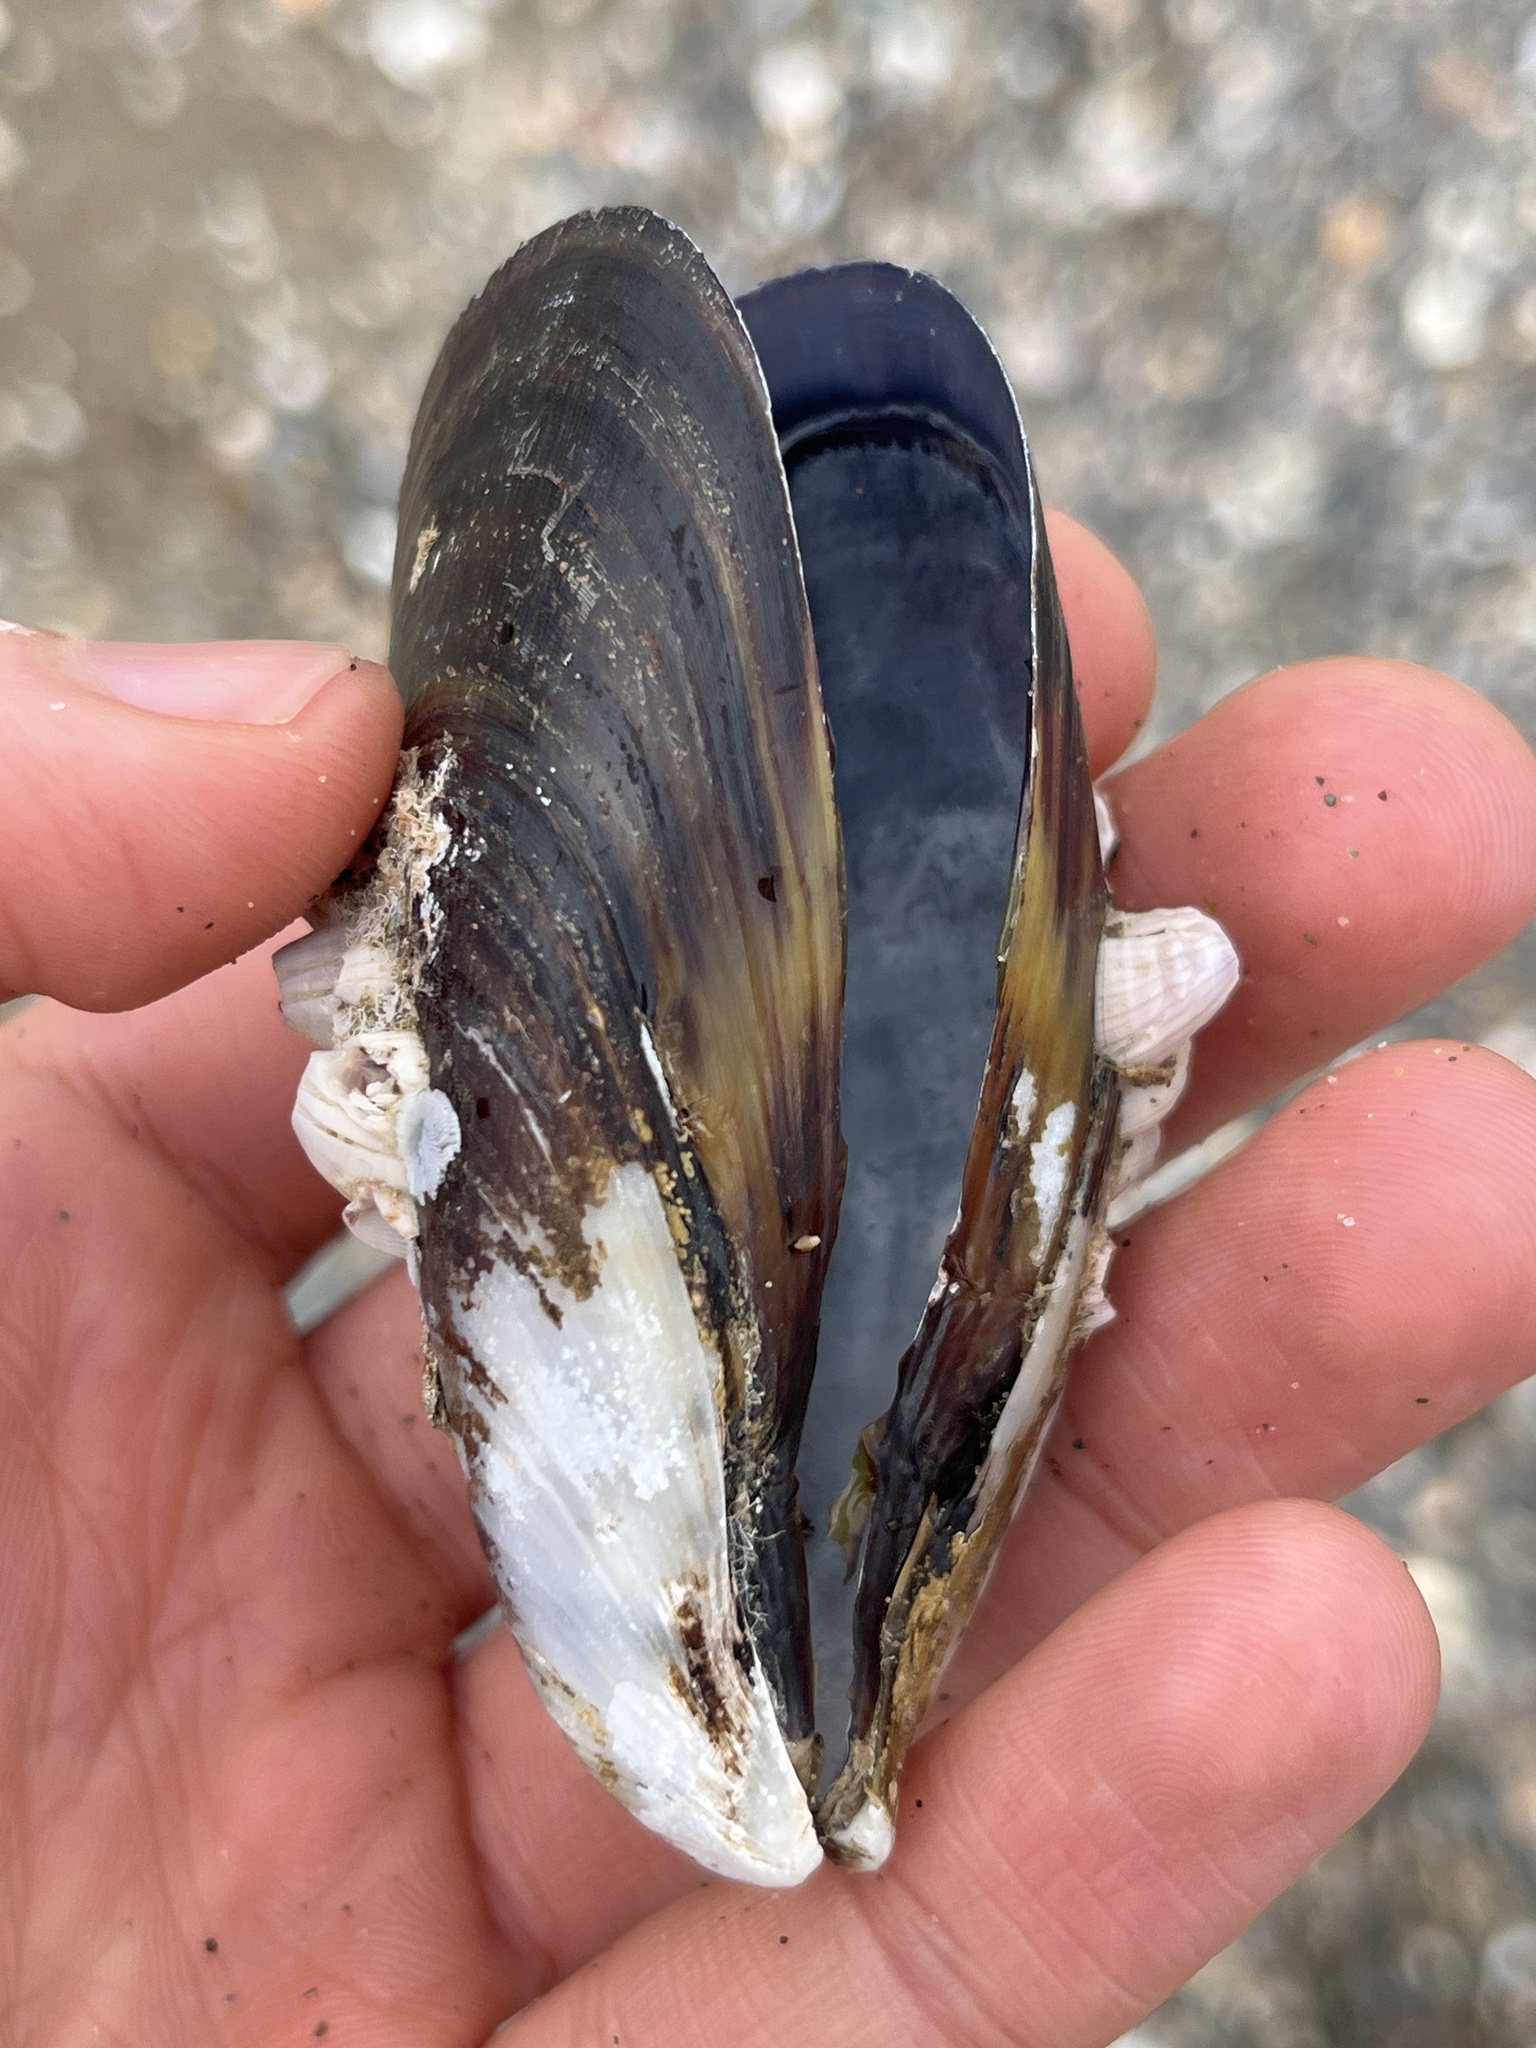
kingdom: Animalia
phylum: Mollusca
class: Bivalvia
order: Mytilida
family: Mytilidae
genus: Mytilus
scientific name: Mytilus galloprovincialis
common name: Mediterranean mussel
